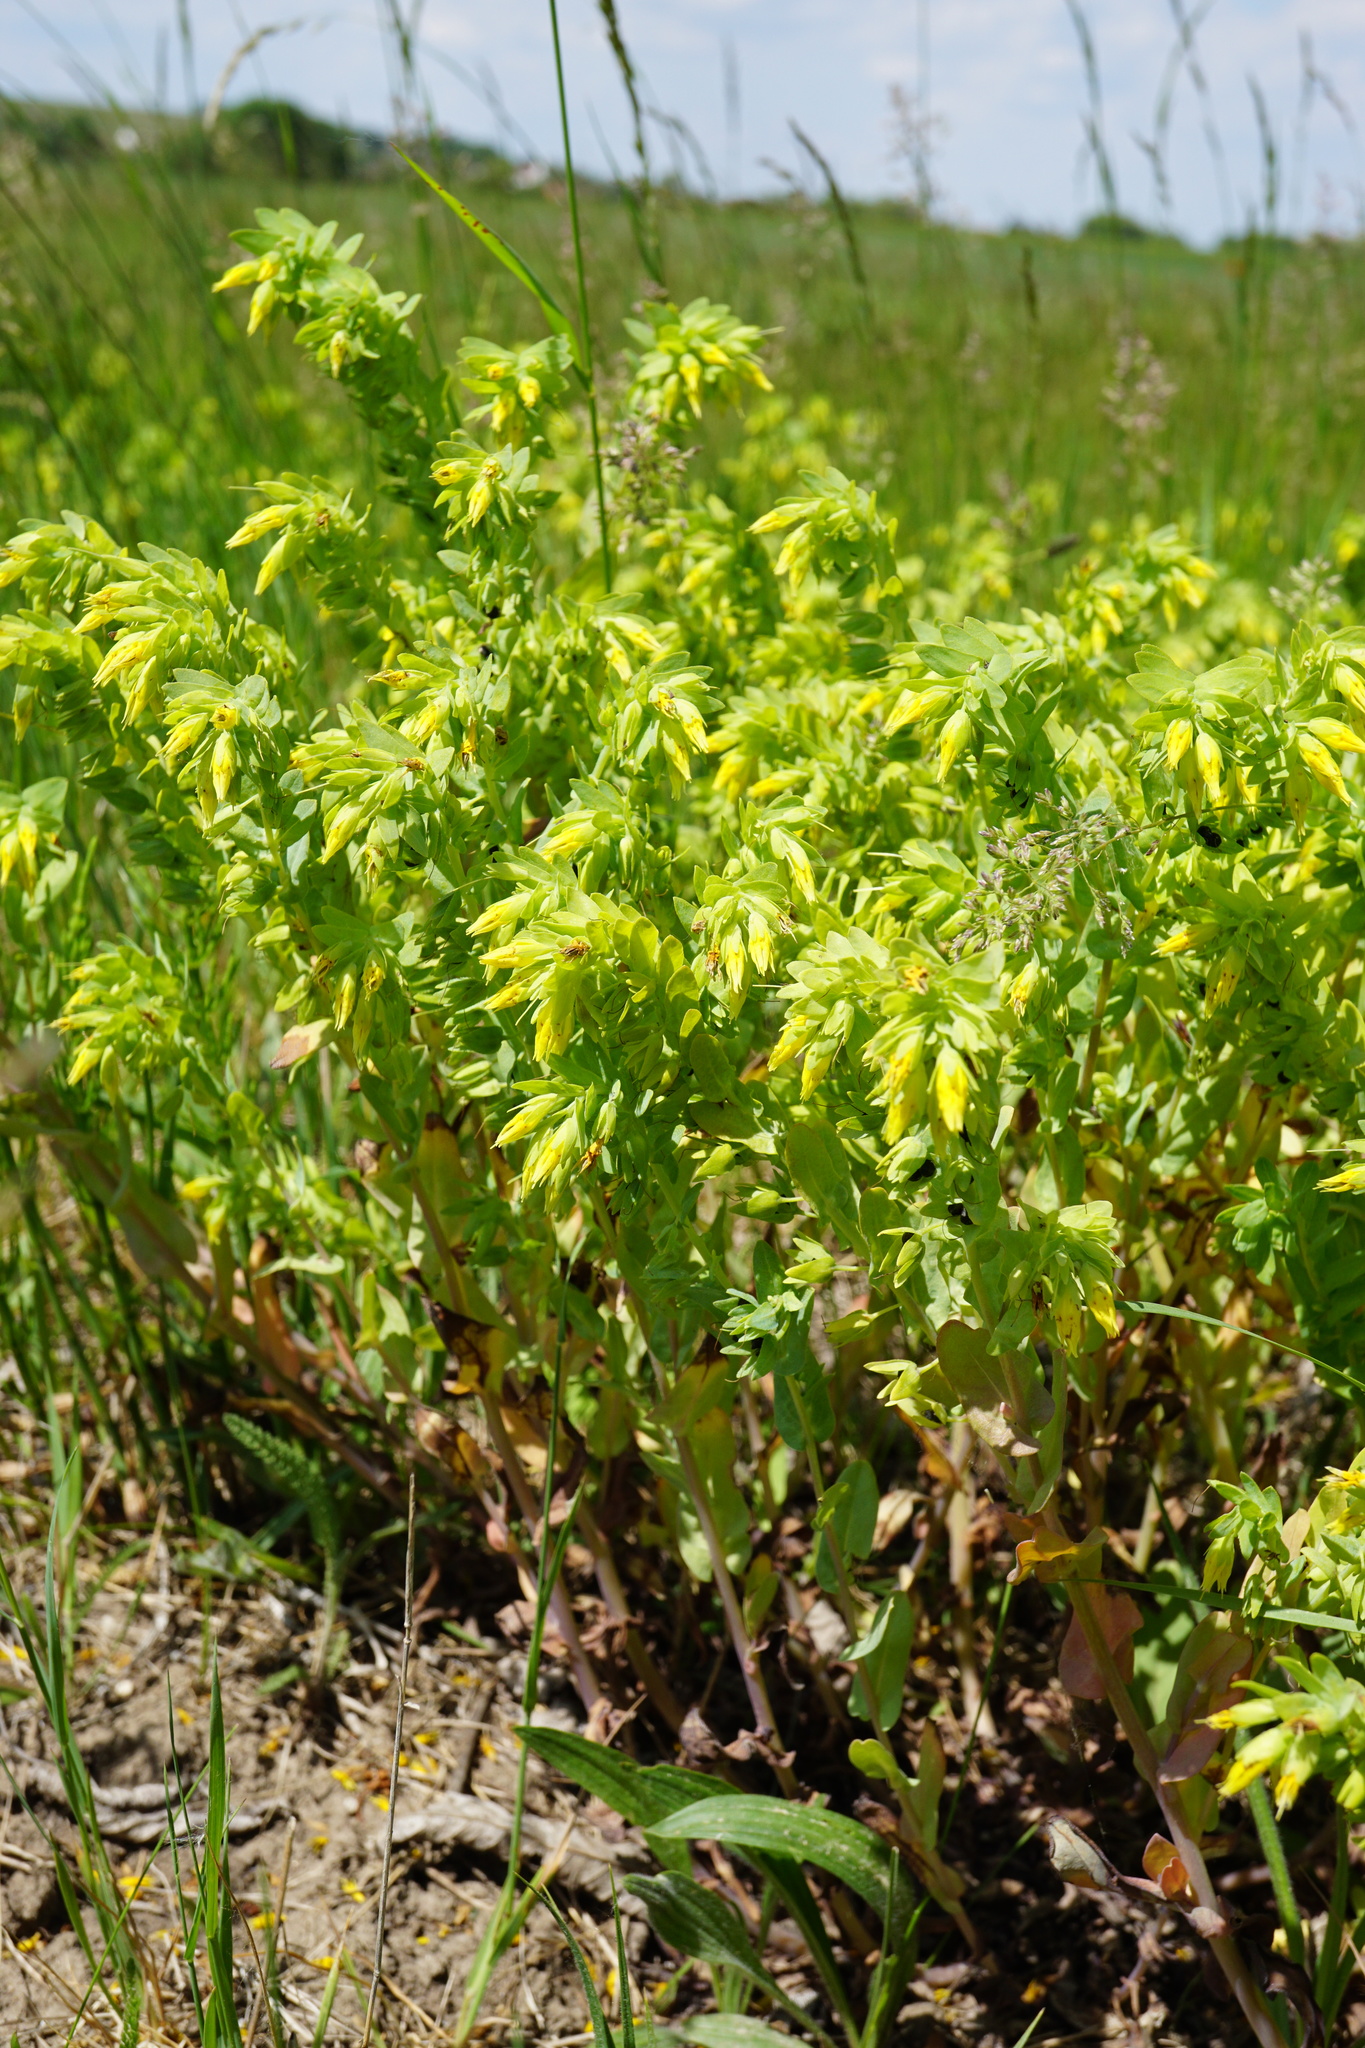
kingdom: Plantae
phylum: Tracheophyta
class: Magnoliopsida
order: Boraginales
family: Boraginaceae
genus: Cerinthe
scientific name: Cerinthe minor
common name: Lesser honeywort
